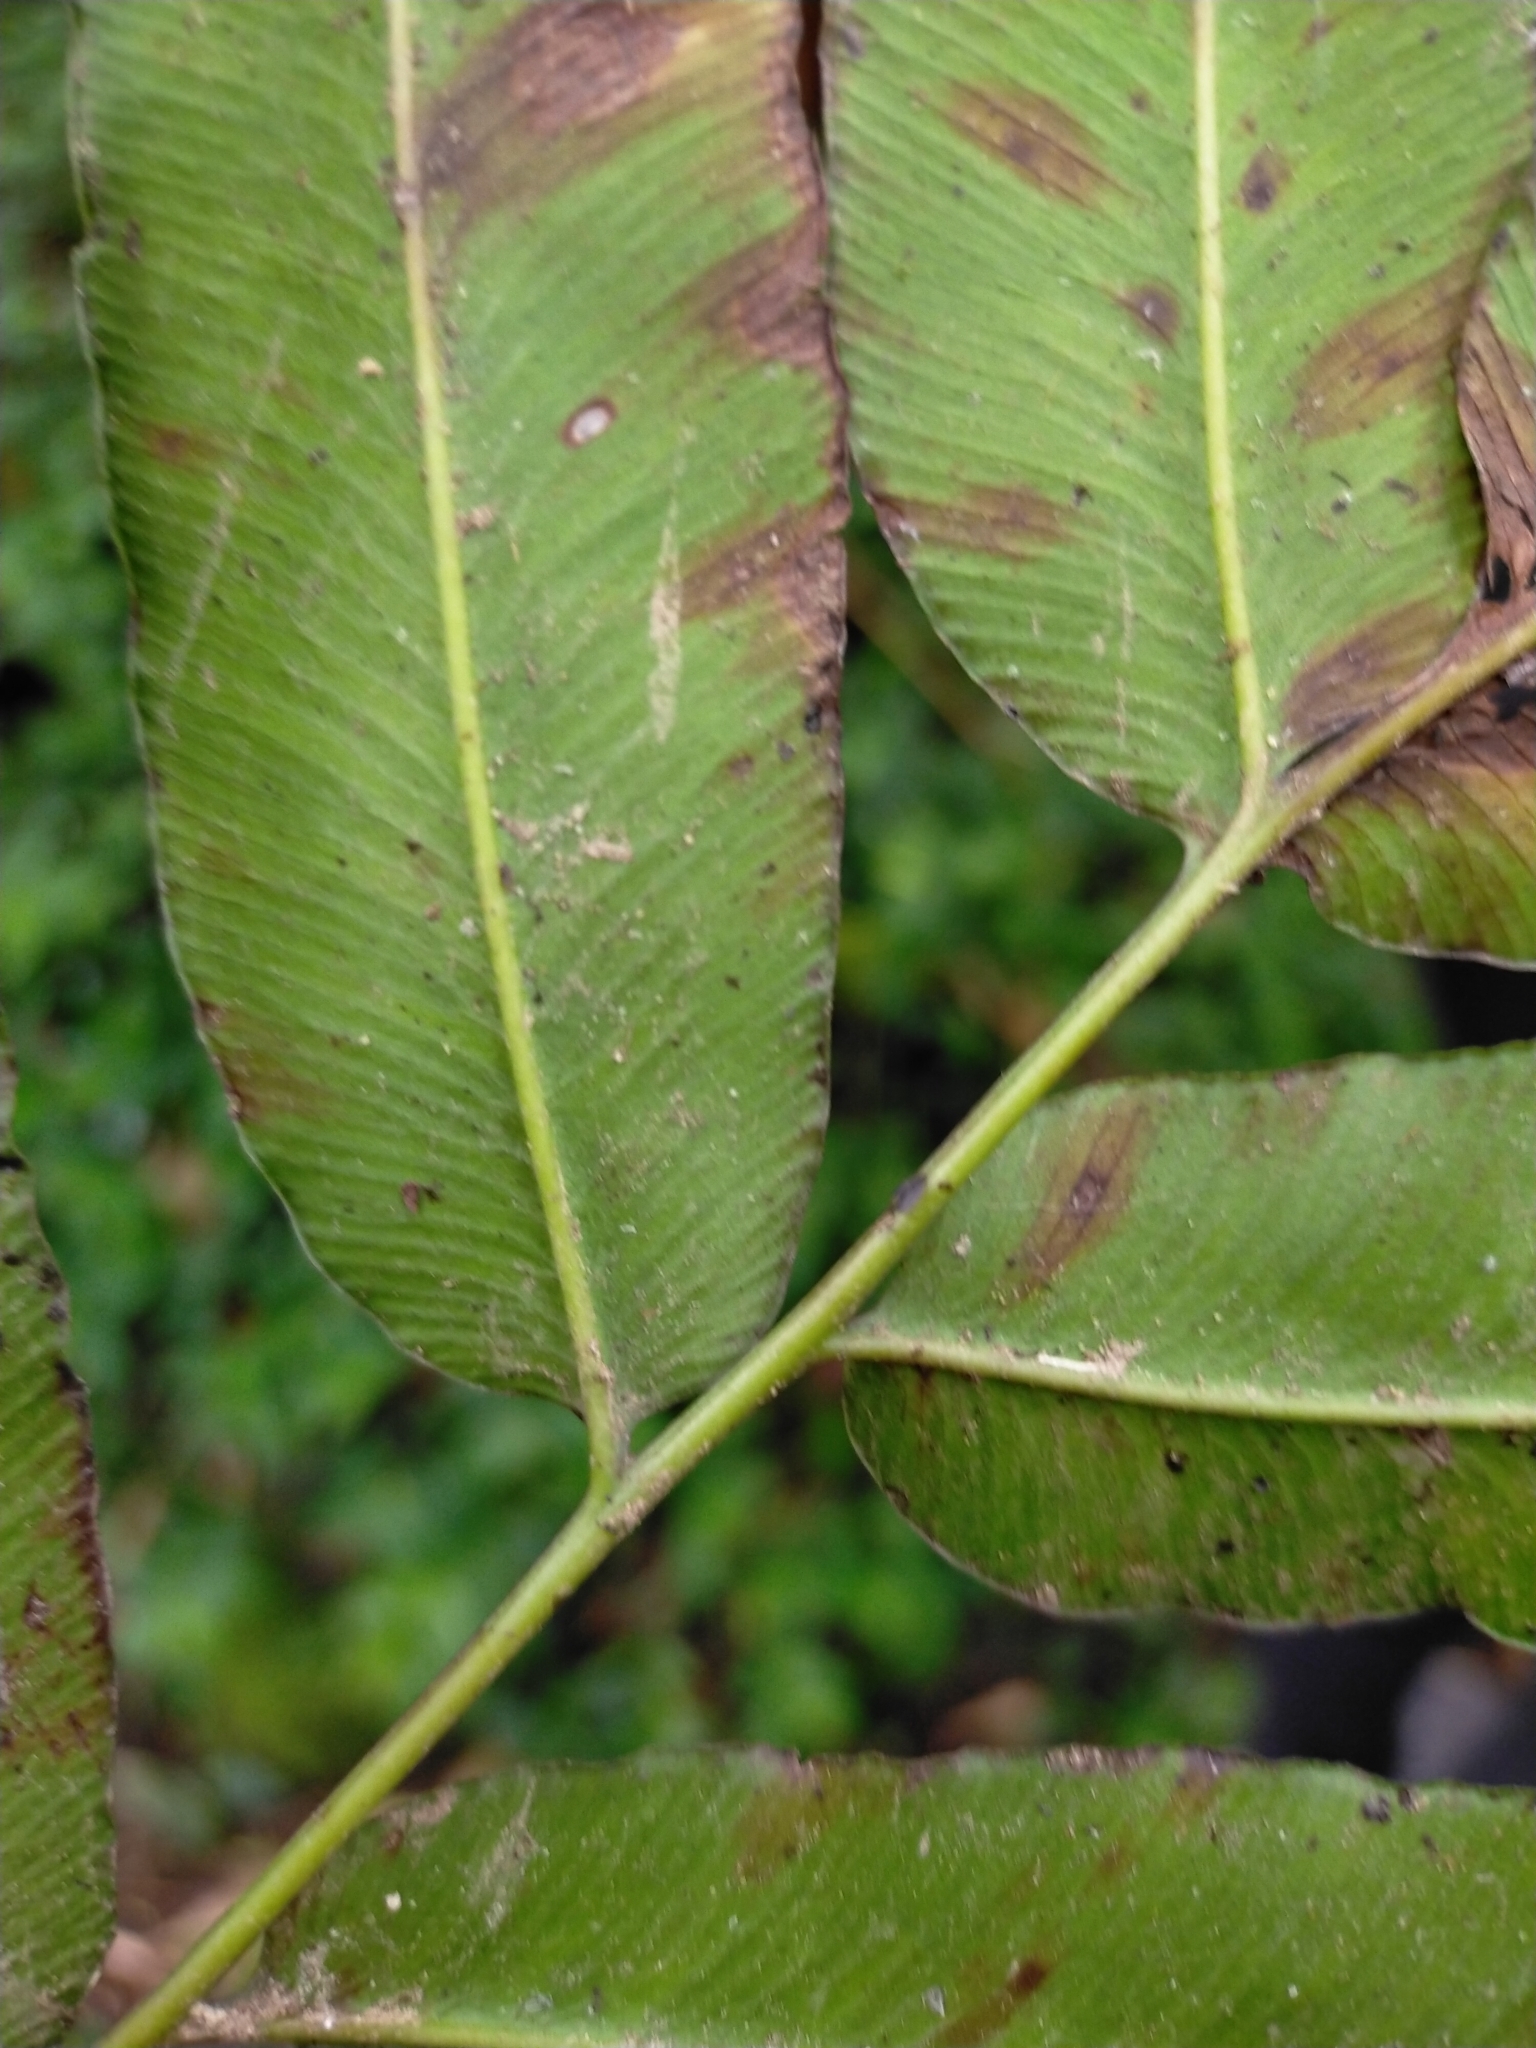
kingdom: Plantae
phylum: Tracheophyta
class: Polypodiopsida
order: Polypodiales
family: Pteridaceae
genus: Coniogramme
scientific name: Coniogramme fraxinea
